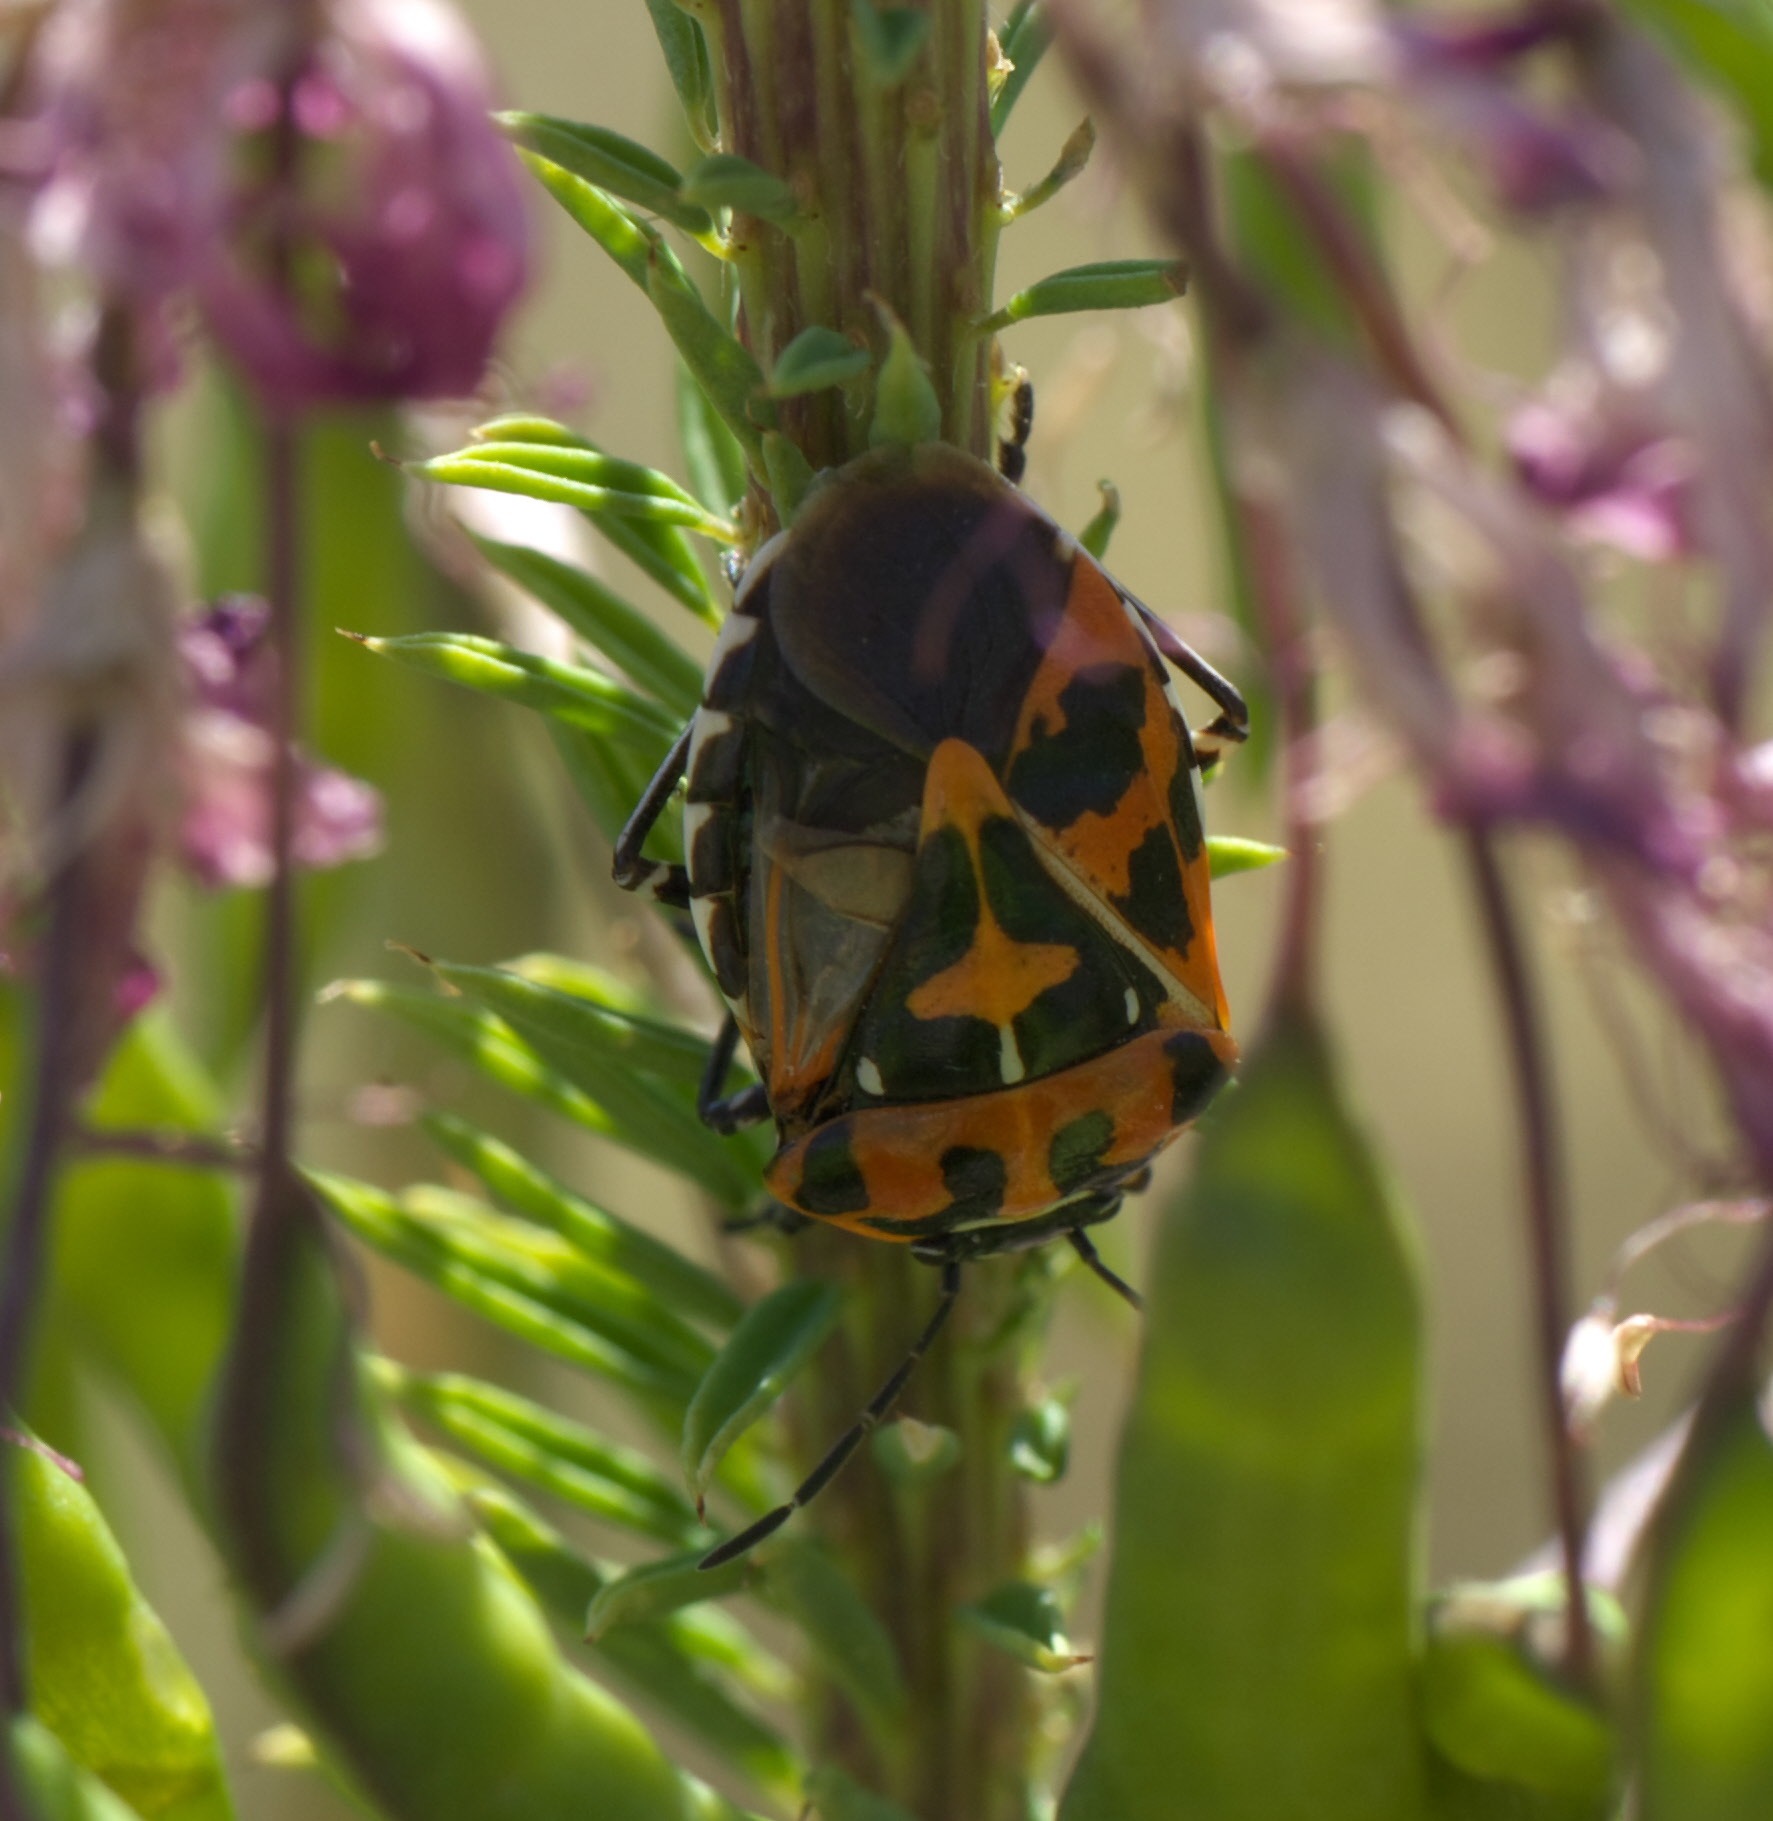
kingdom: Animalia
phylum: Arthropoda
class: Insecta
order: Hemiptera
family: Pentatomidae
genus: Murgantia
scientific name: Murgantia histrionica
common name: Harlequin bug
